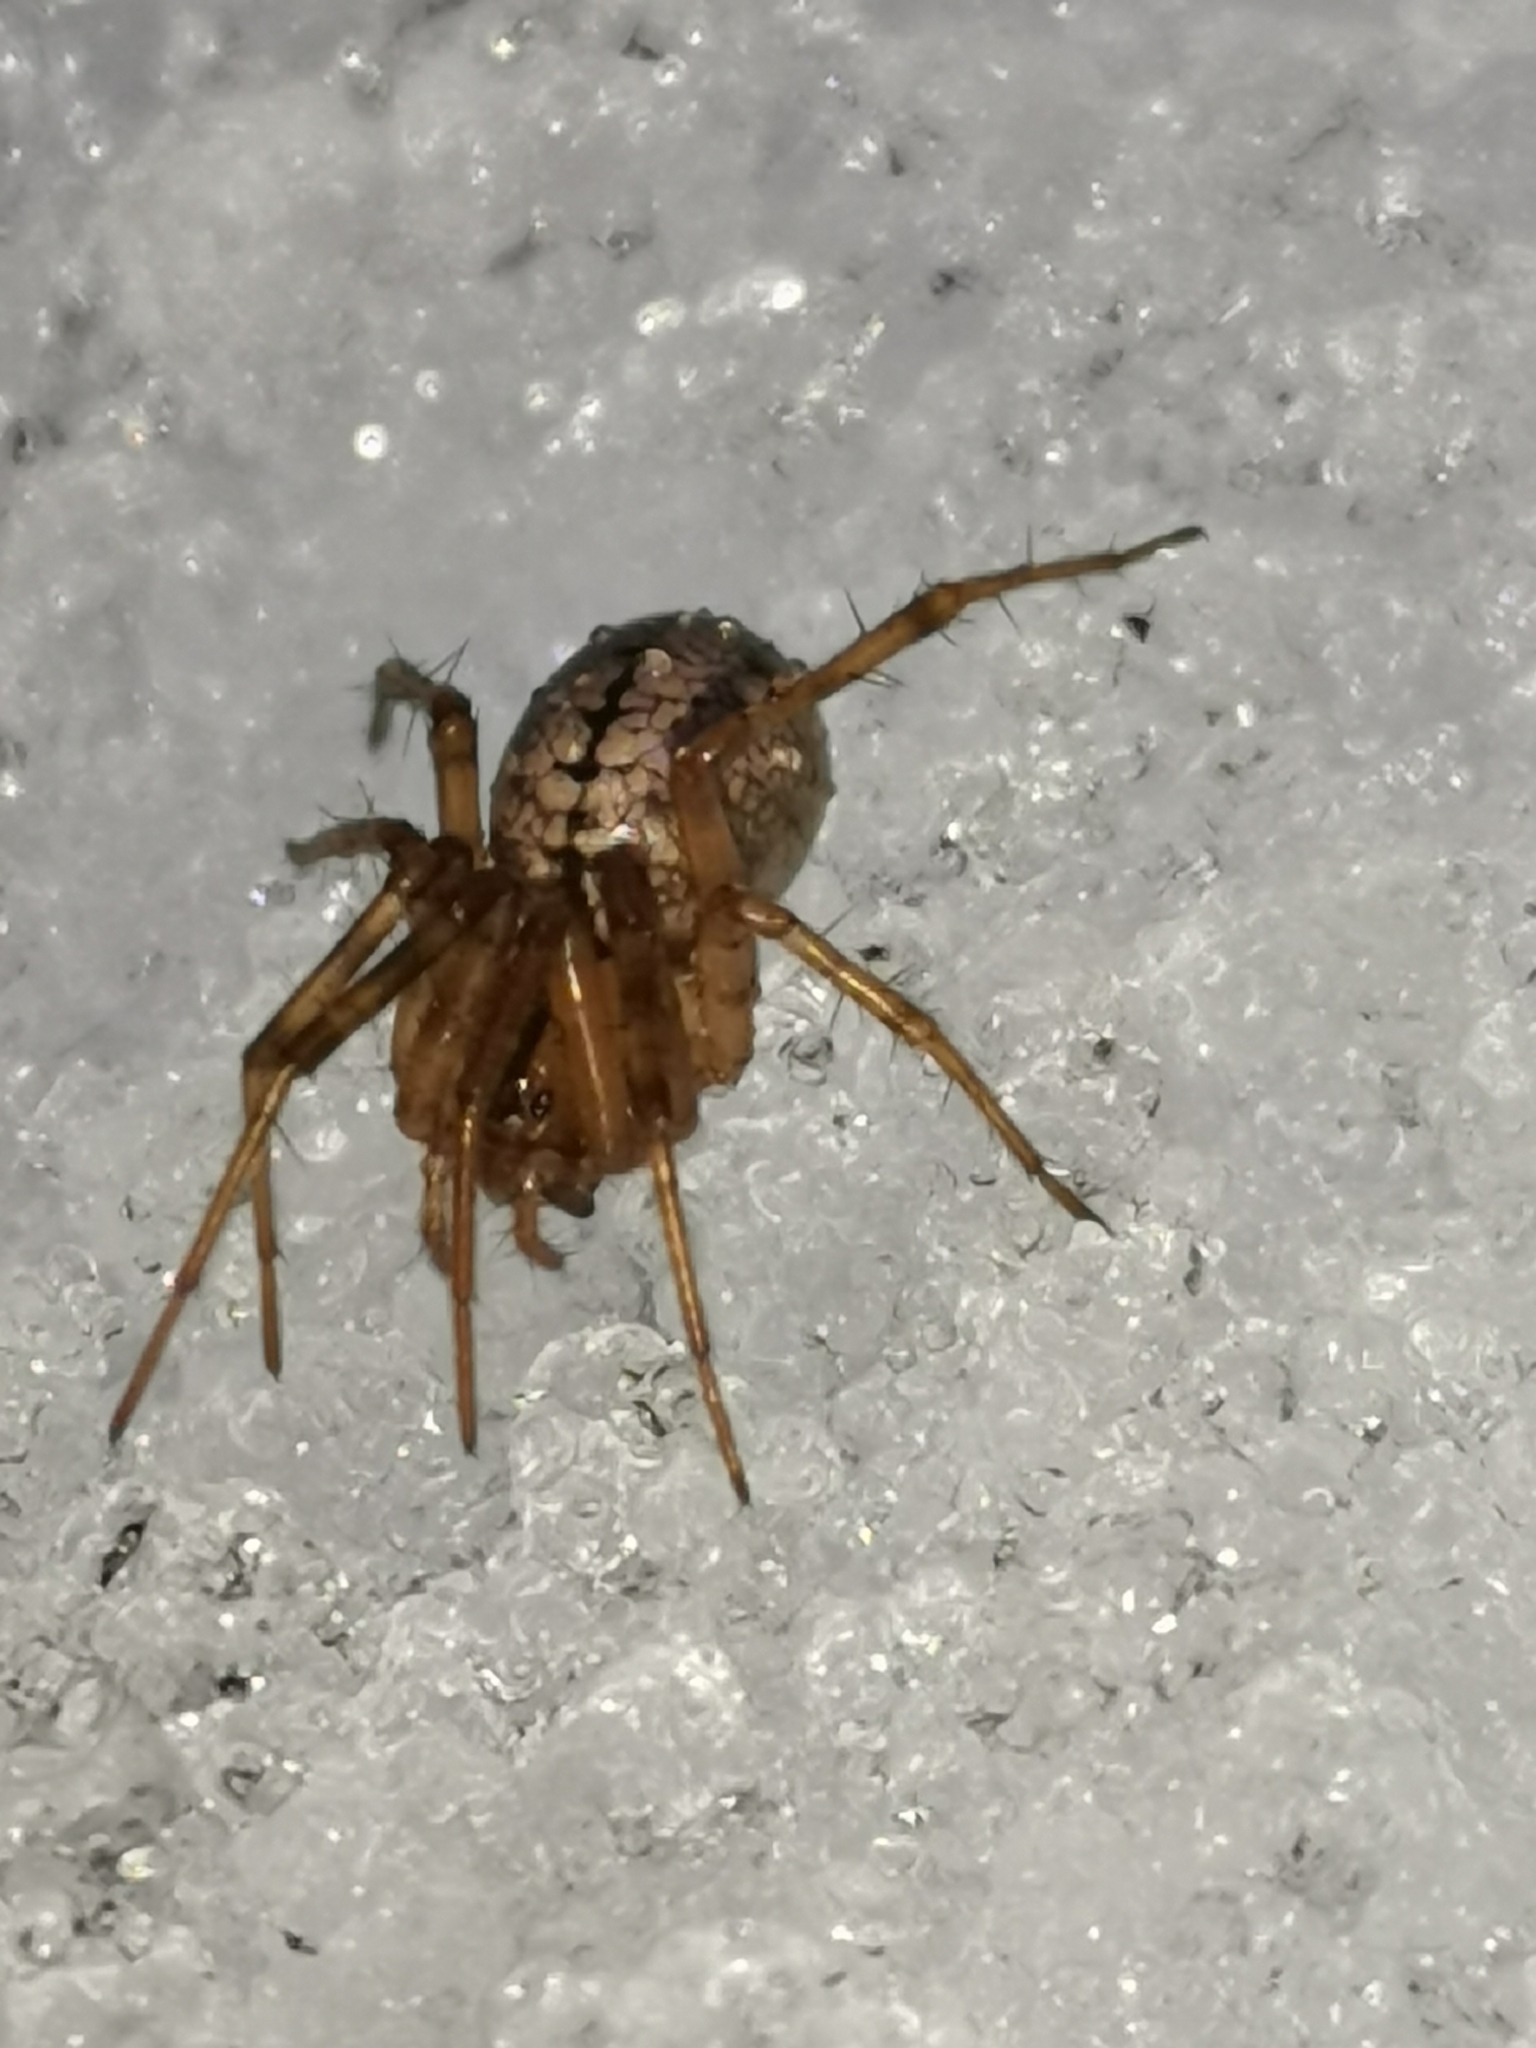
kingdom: Animalia
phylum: Arthropoda
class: Arachnida
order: Araneae
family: Linyphiidae
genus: Stemonyphantes
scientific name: Stemonyphantes lineatus
